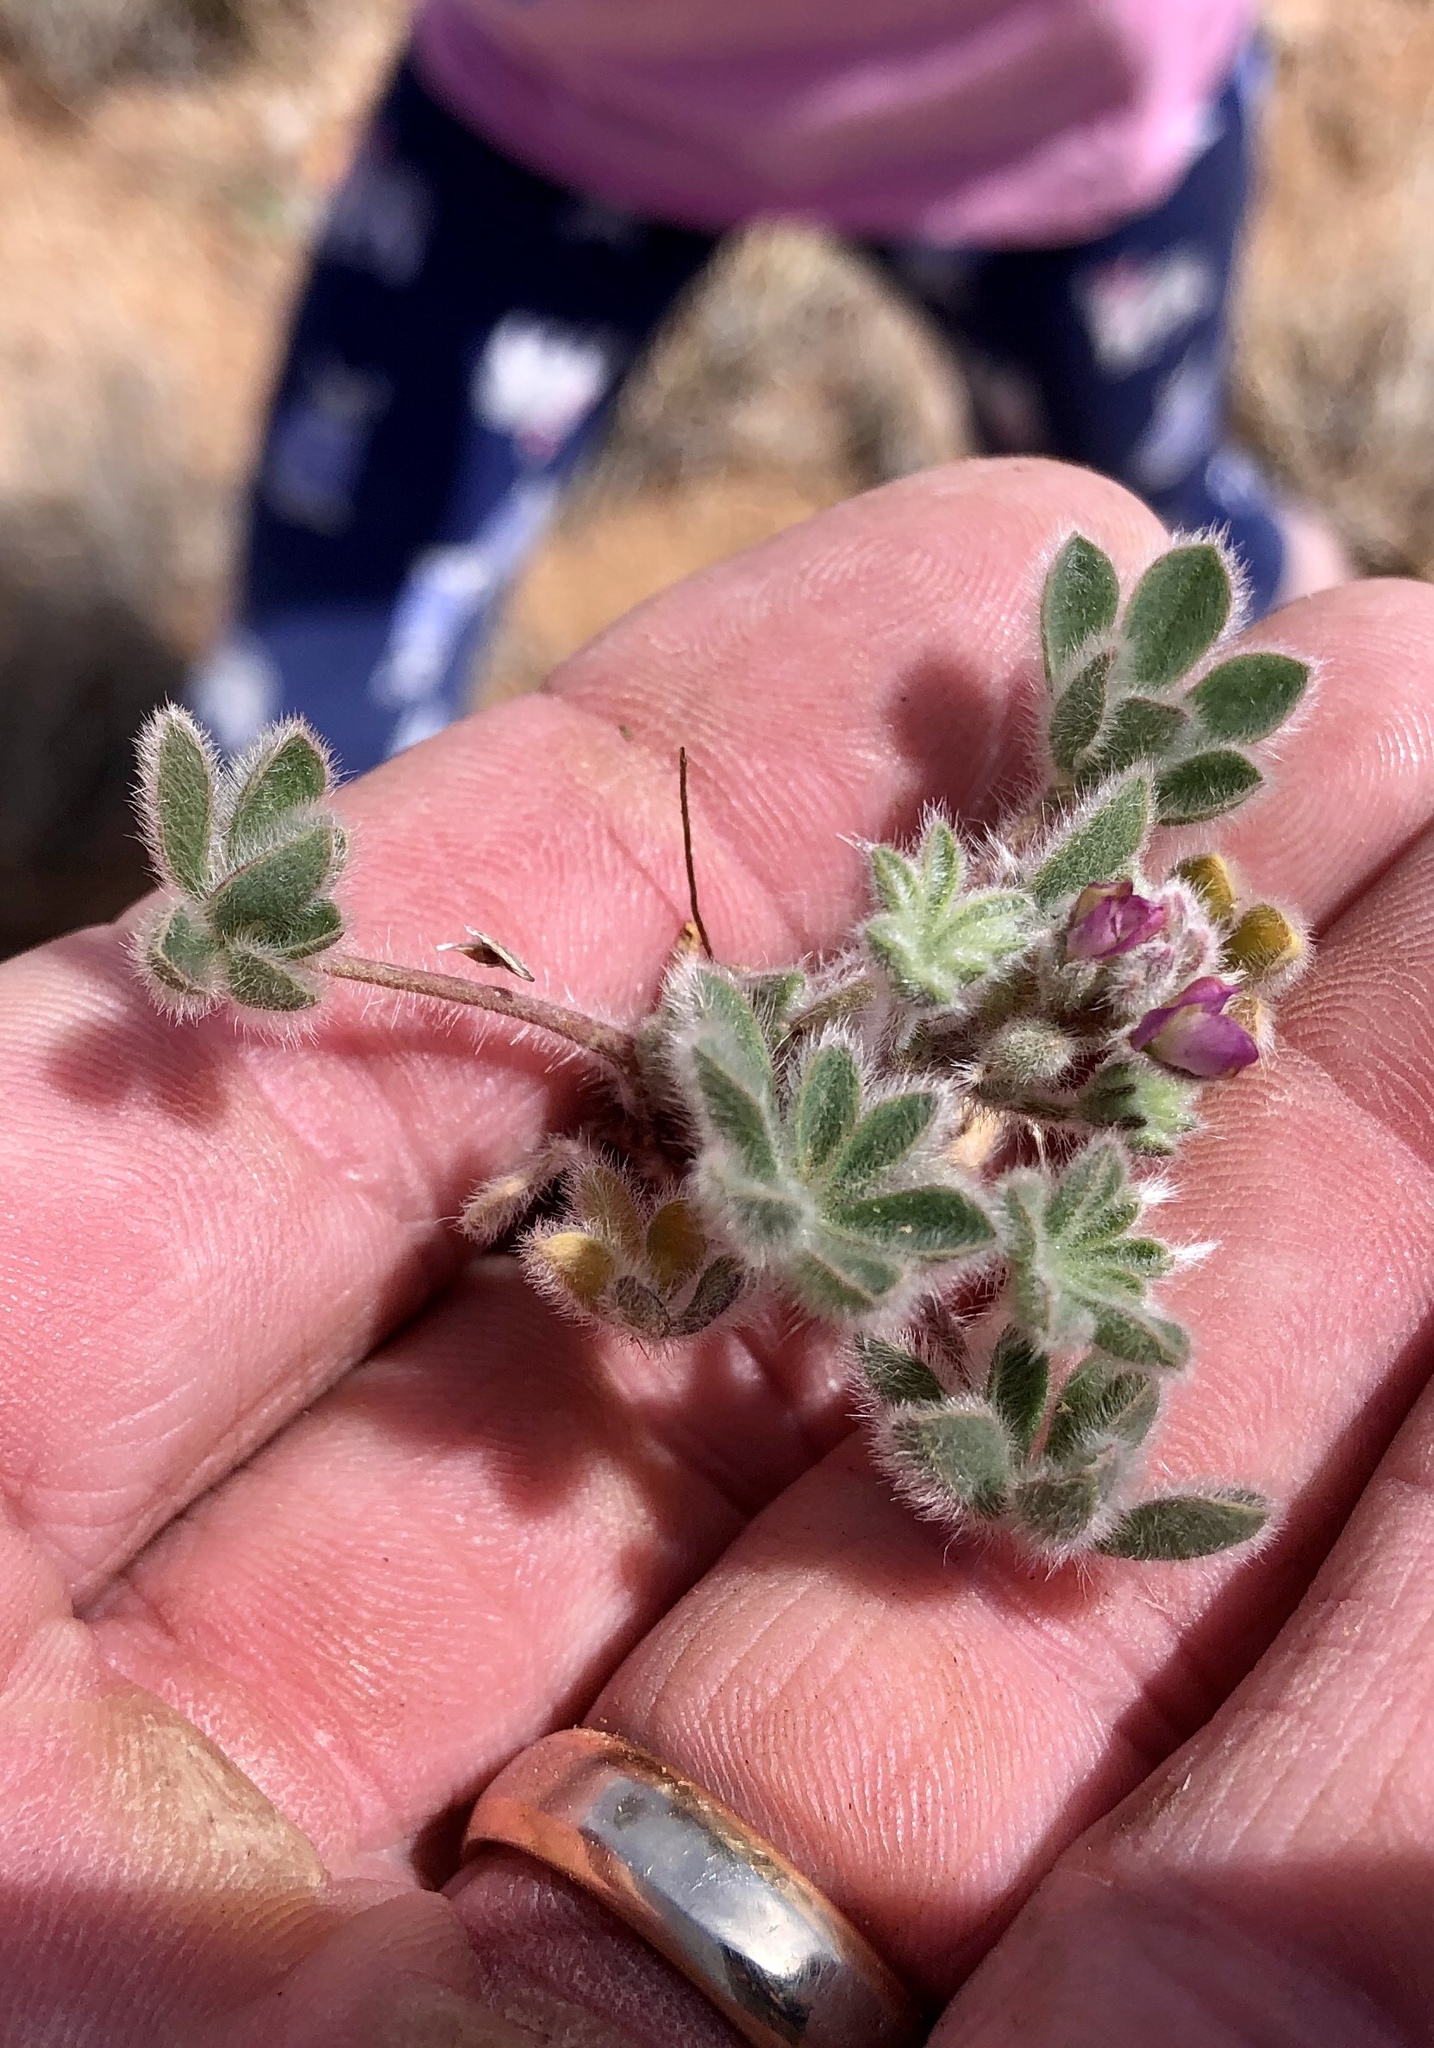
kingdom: Plantae
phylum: Tracheophyta
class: Magnoliopsida
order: Fabales
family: Fabaceae
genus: Lupinus
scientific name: Lupinus concinnus
